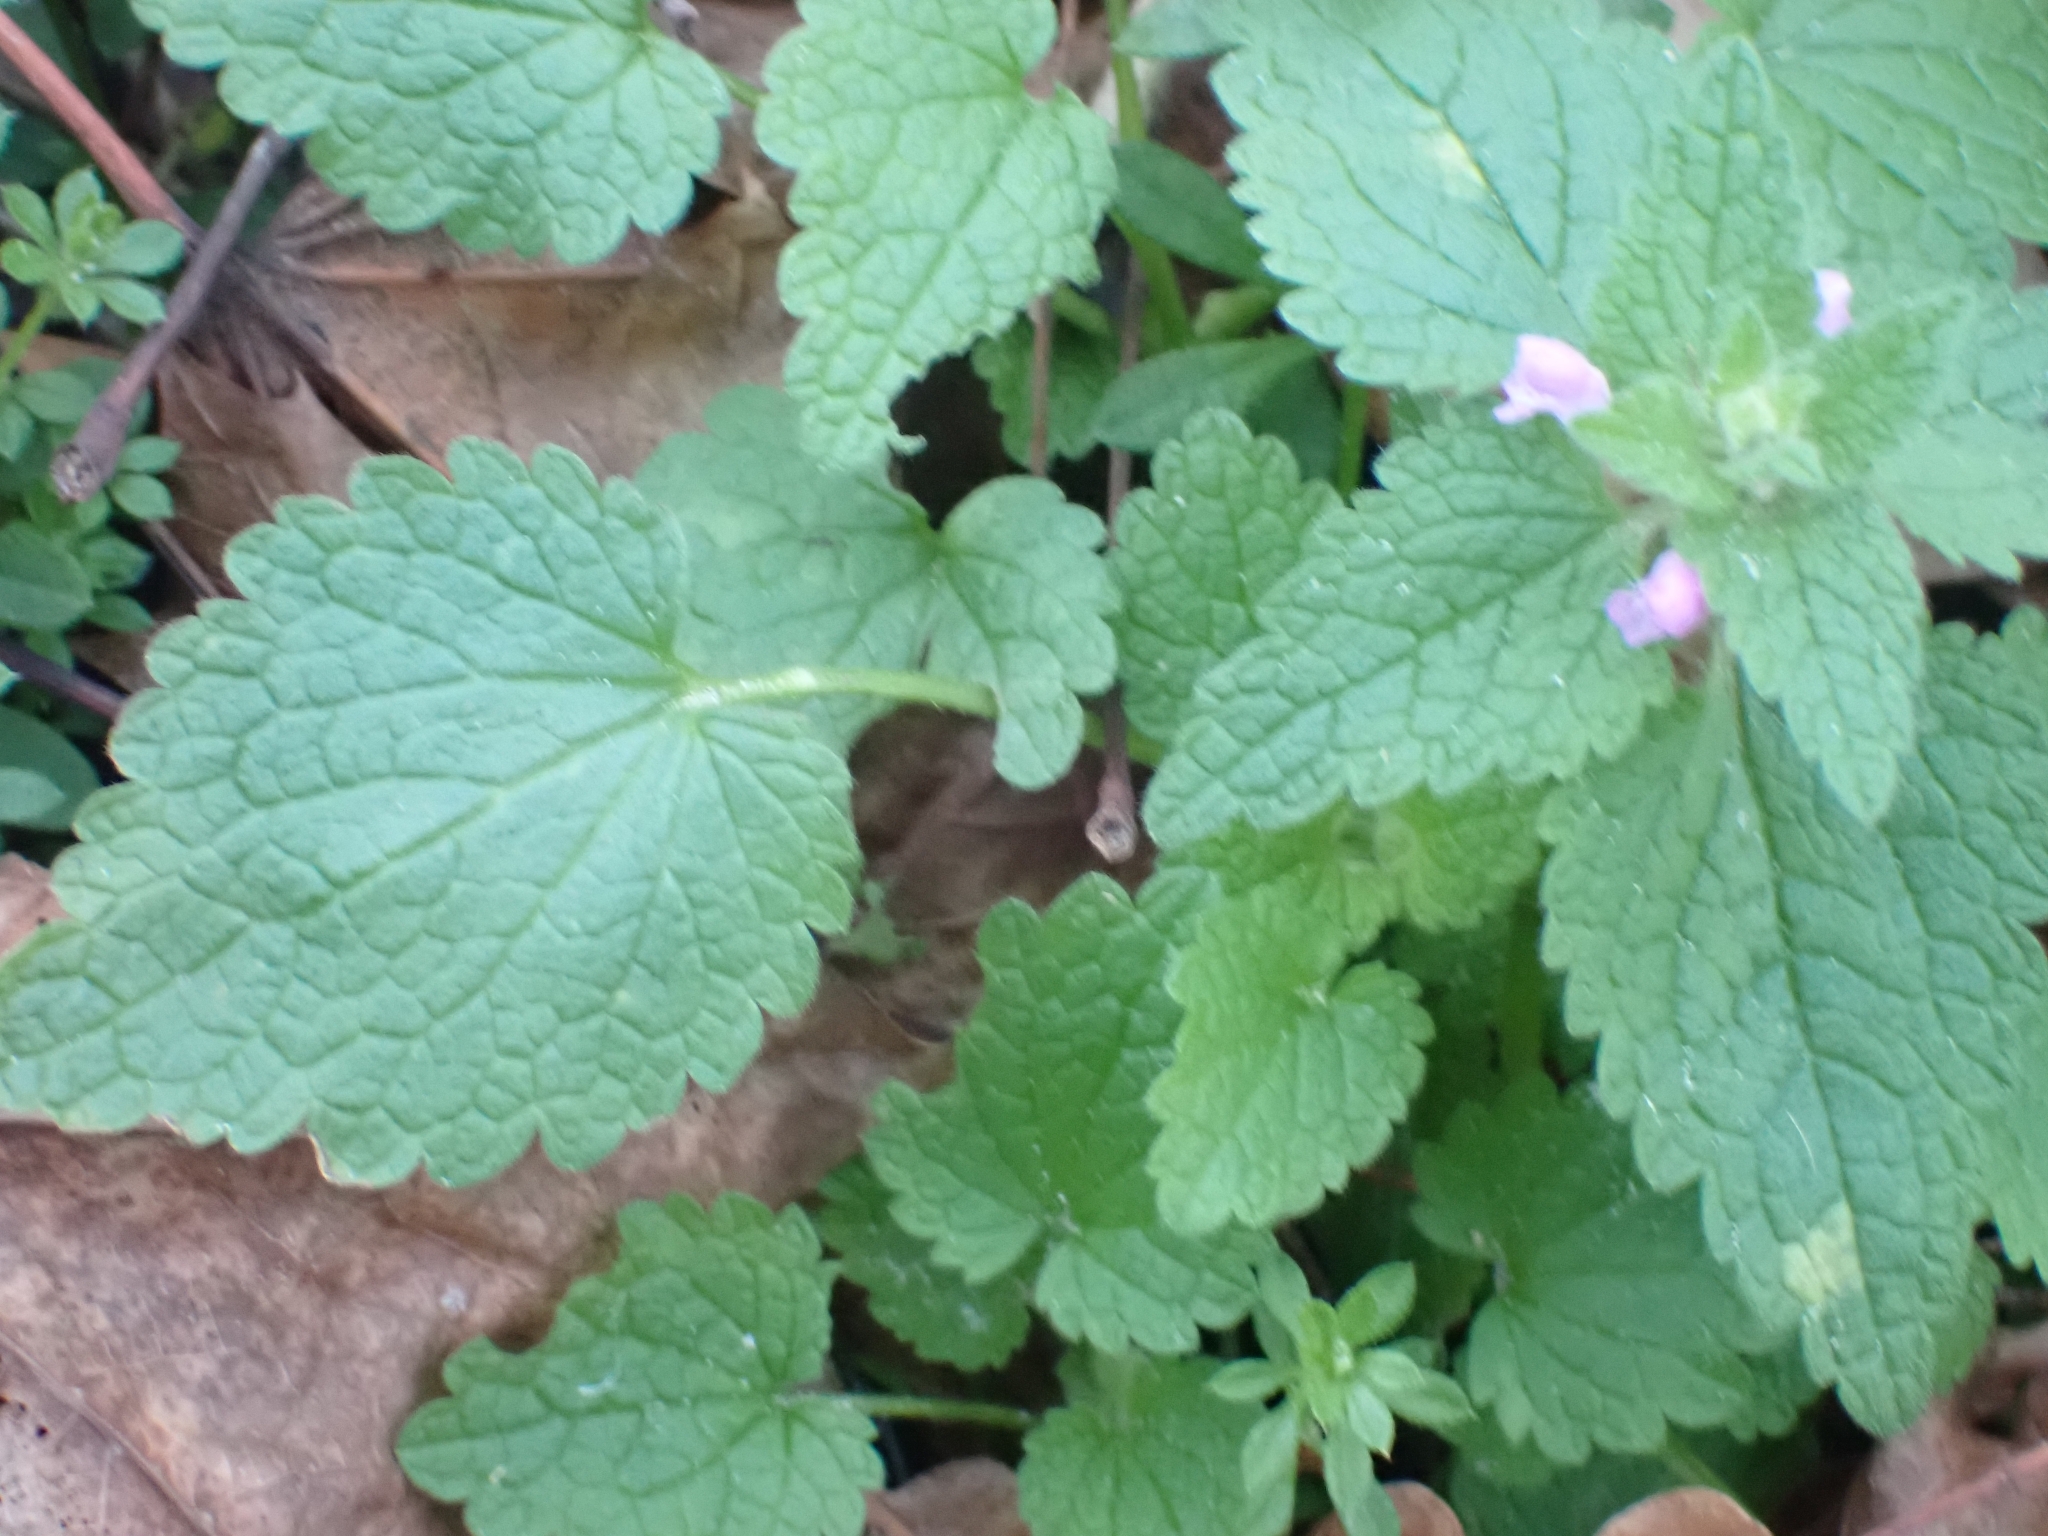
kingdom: Plantae
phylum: Tracheophyta
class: Magnoliopsida
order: Lamiales
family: Lamiaceae
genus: Lamium
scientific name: Lamium purpureum
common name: Red dead-nettle
